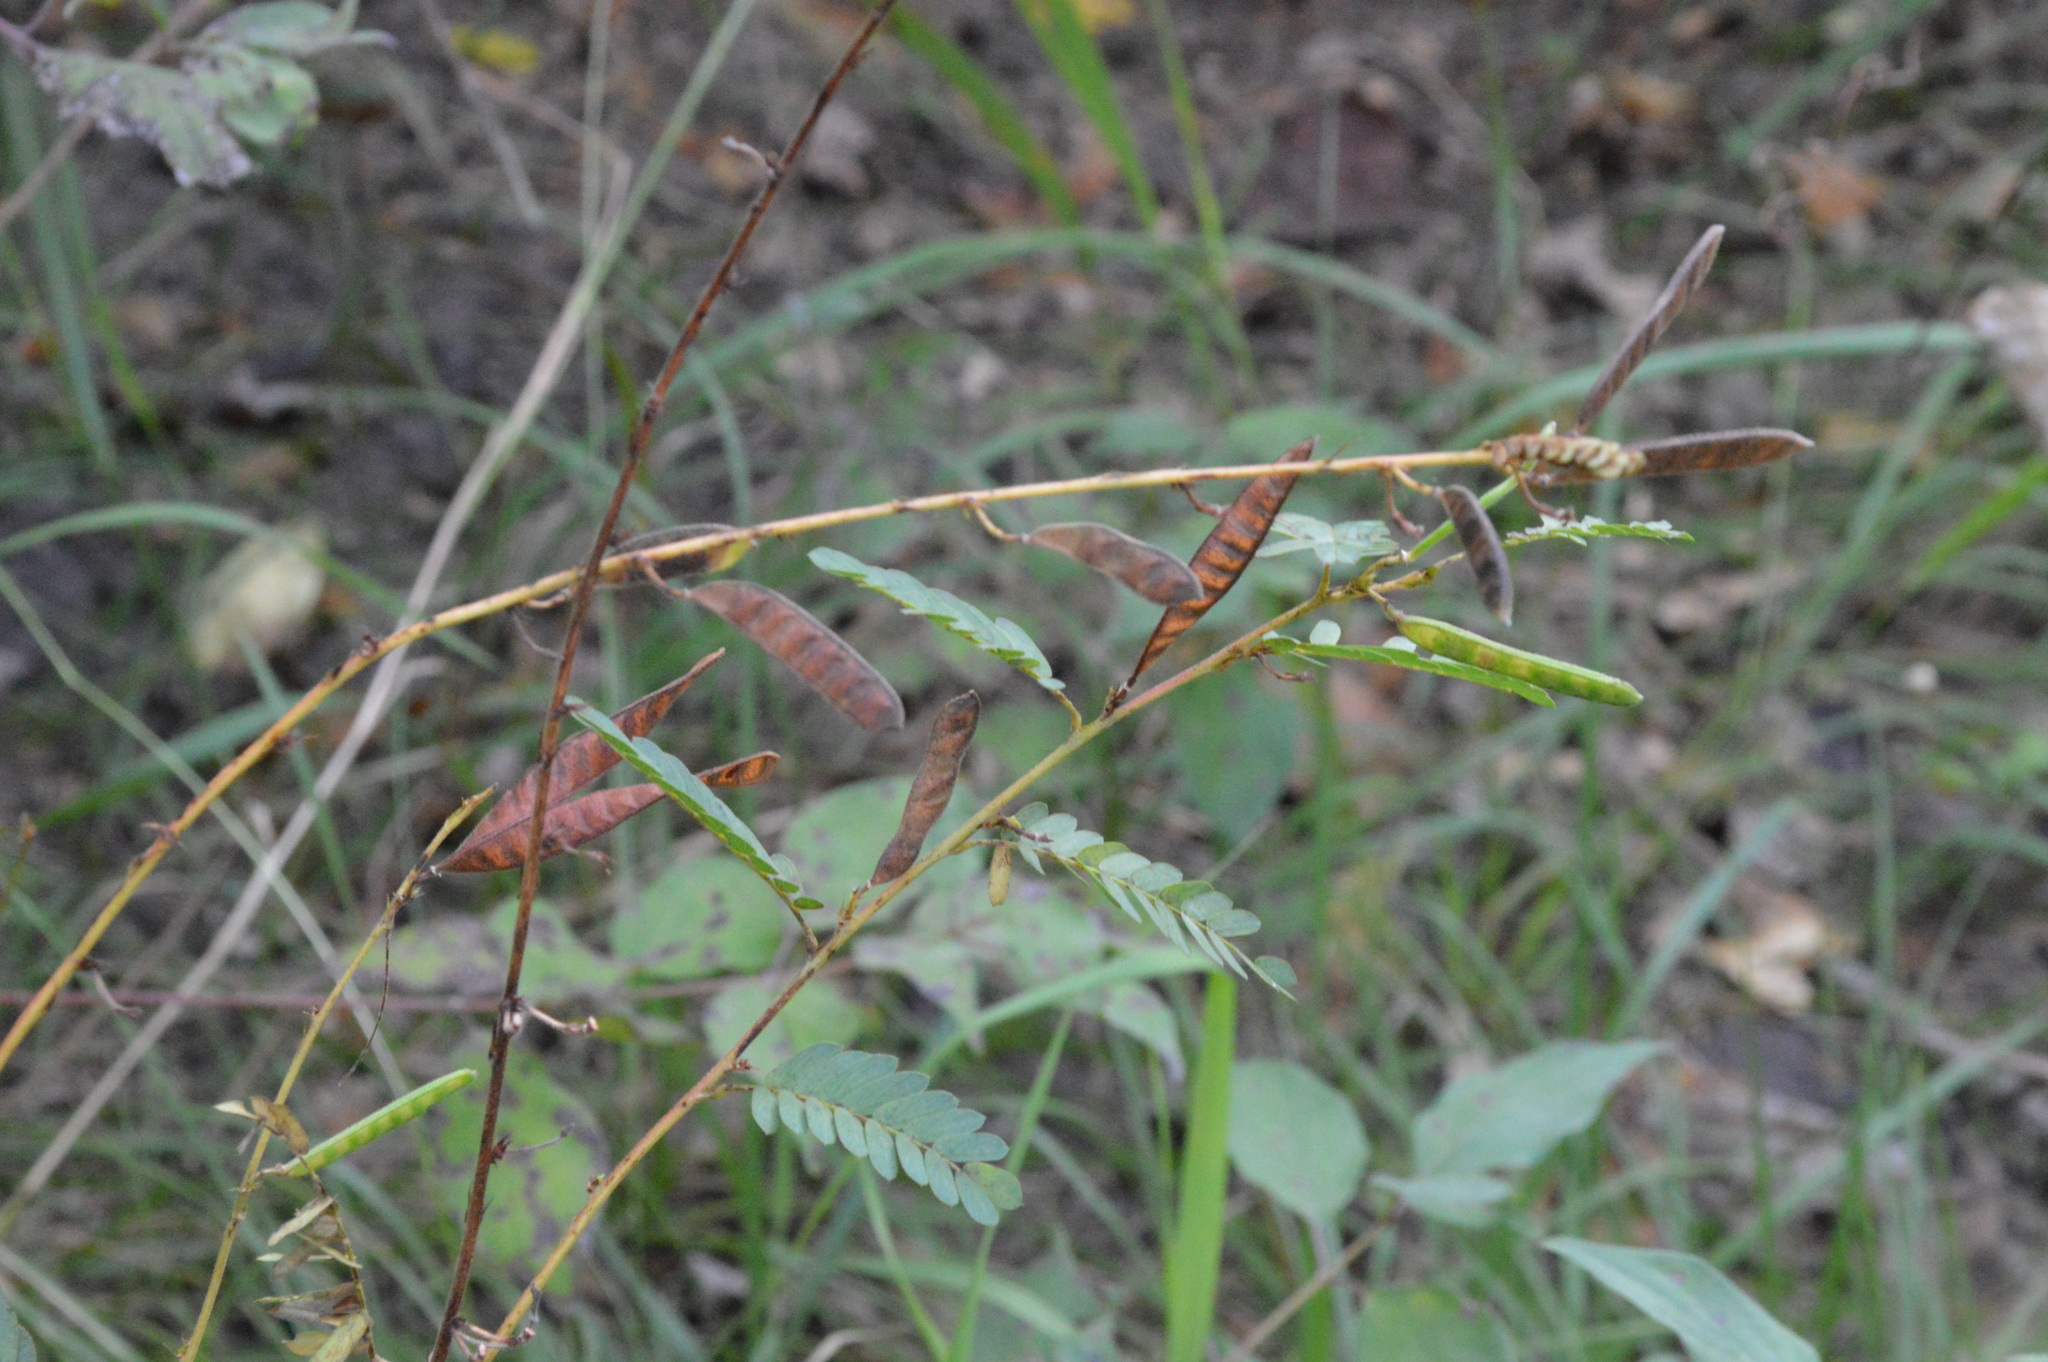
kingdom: Plantae
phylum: Tracheophyta
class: Magnoliopsida
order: Fabales
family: Fabaceae
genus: Chamaecrista
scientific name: Chamaecrista fasciculata
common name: Golden cassia
